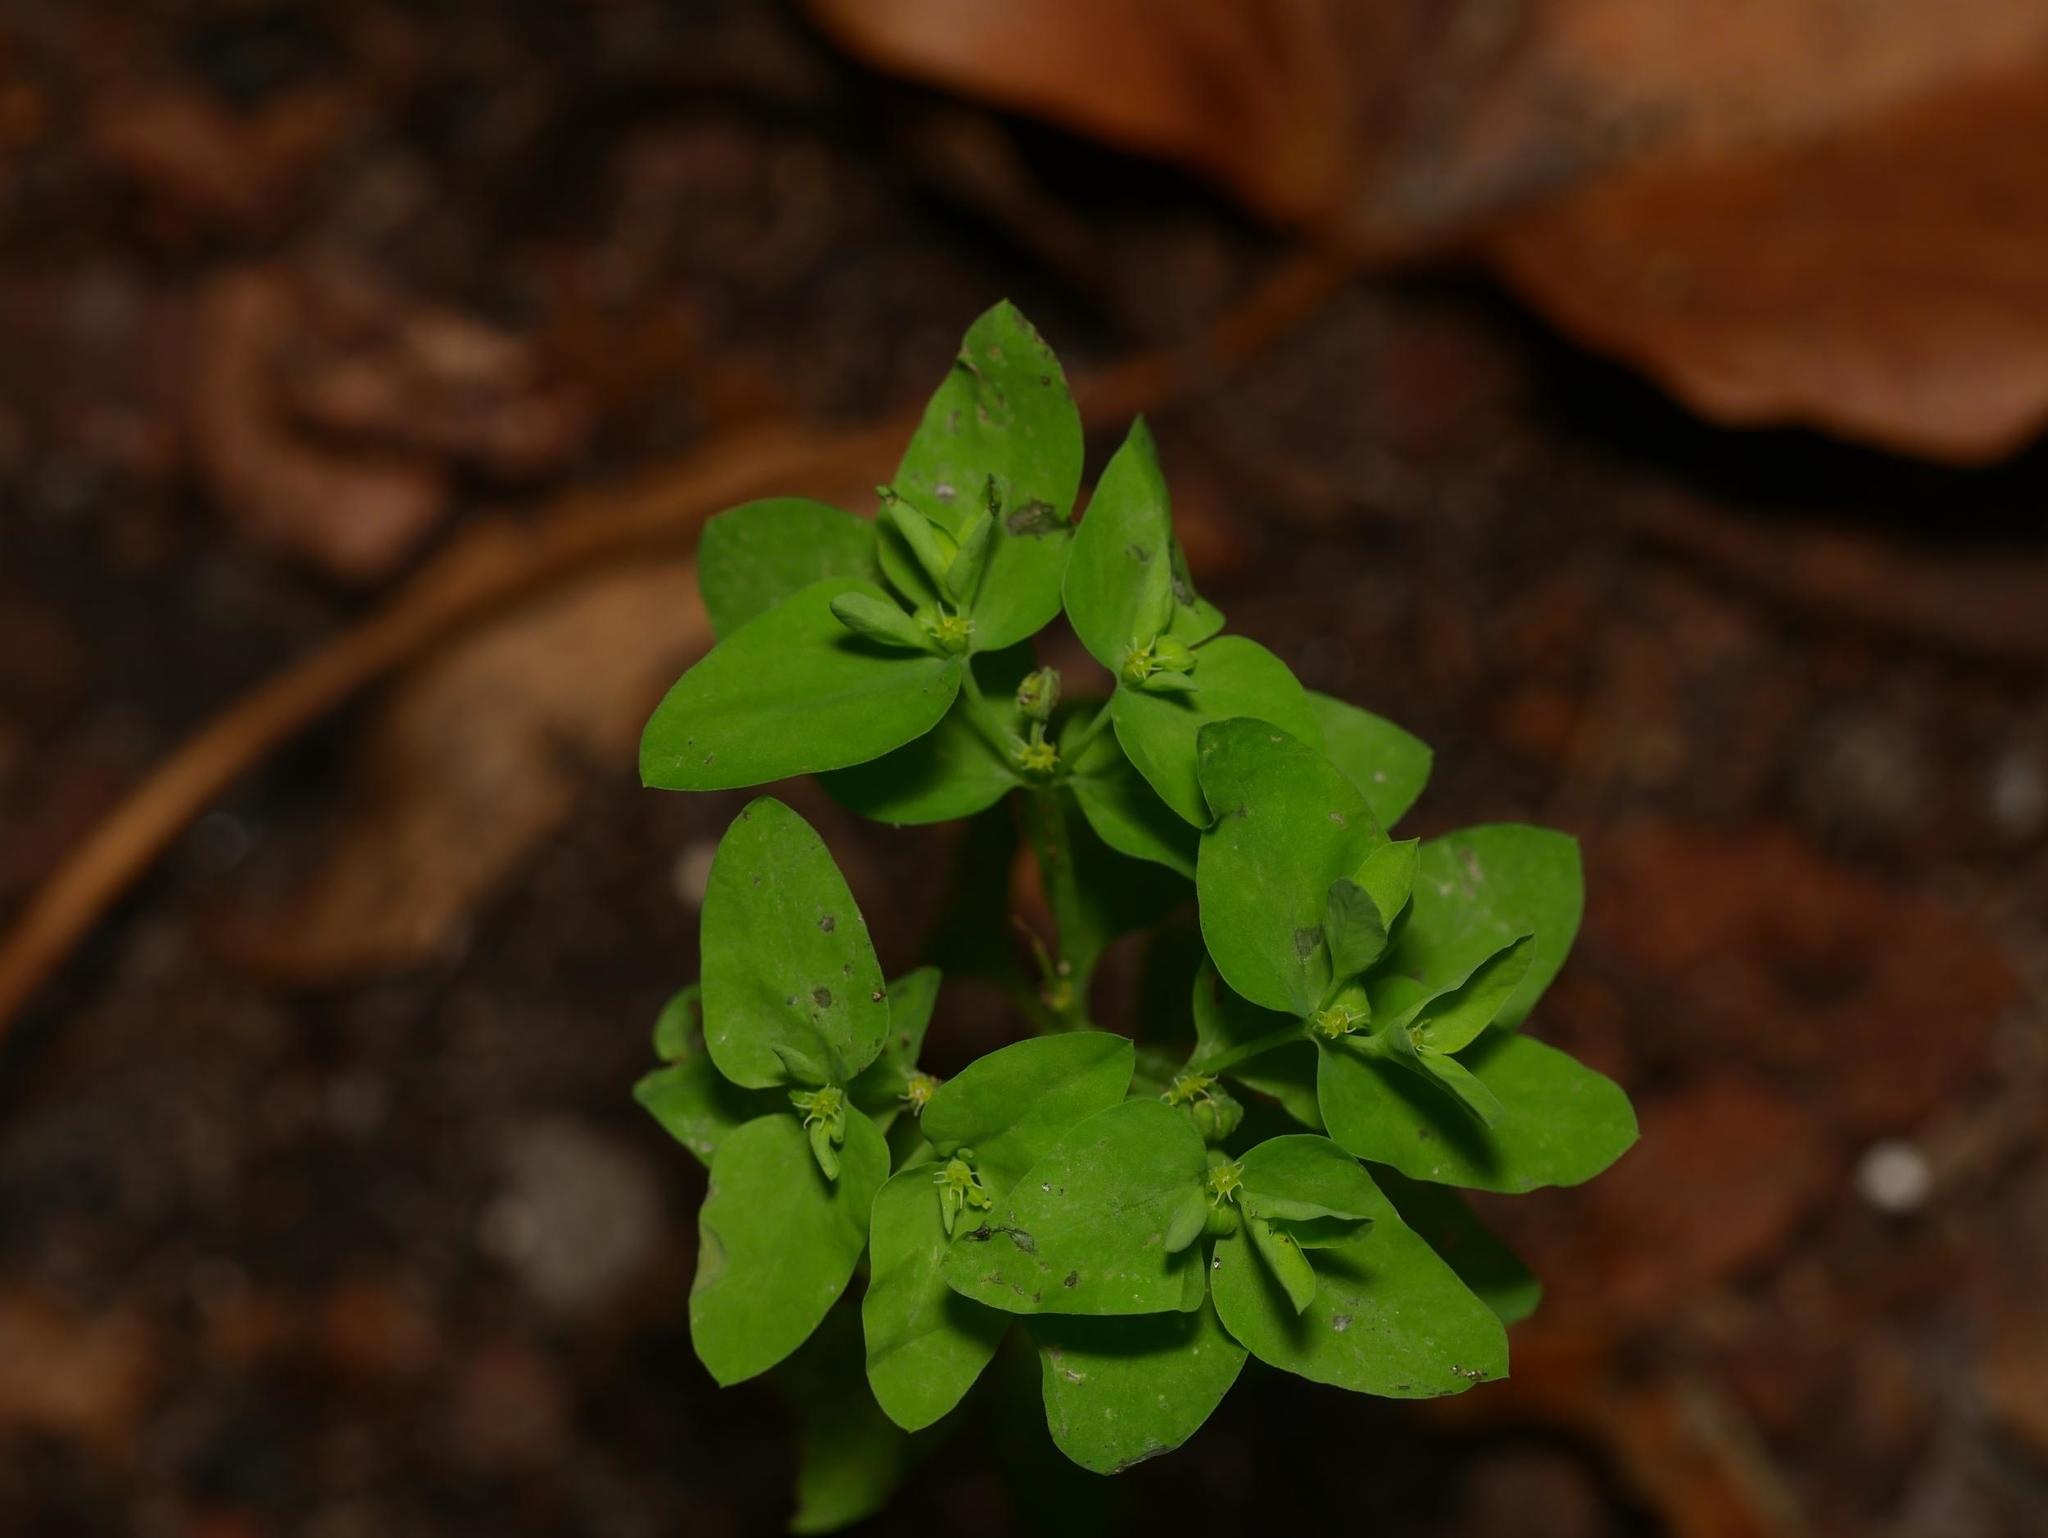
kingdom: Plantae
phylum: Tracheophyta
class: Magnoliopsida
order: Malpighiales
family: Euphorbiaceae
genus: Euphorbia
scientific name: Euphorbia peplus
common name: Petty spurge
